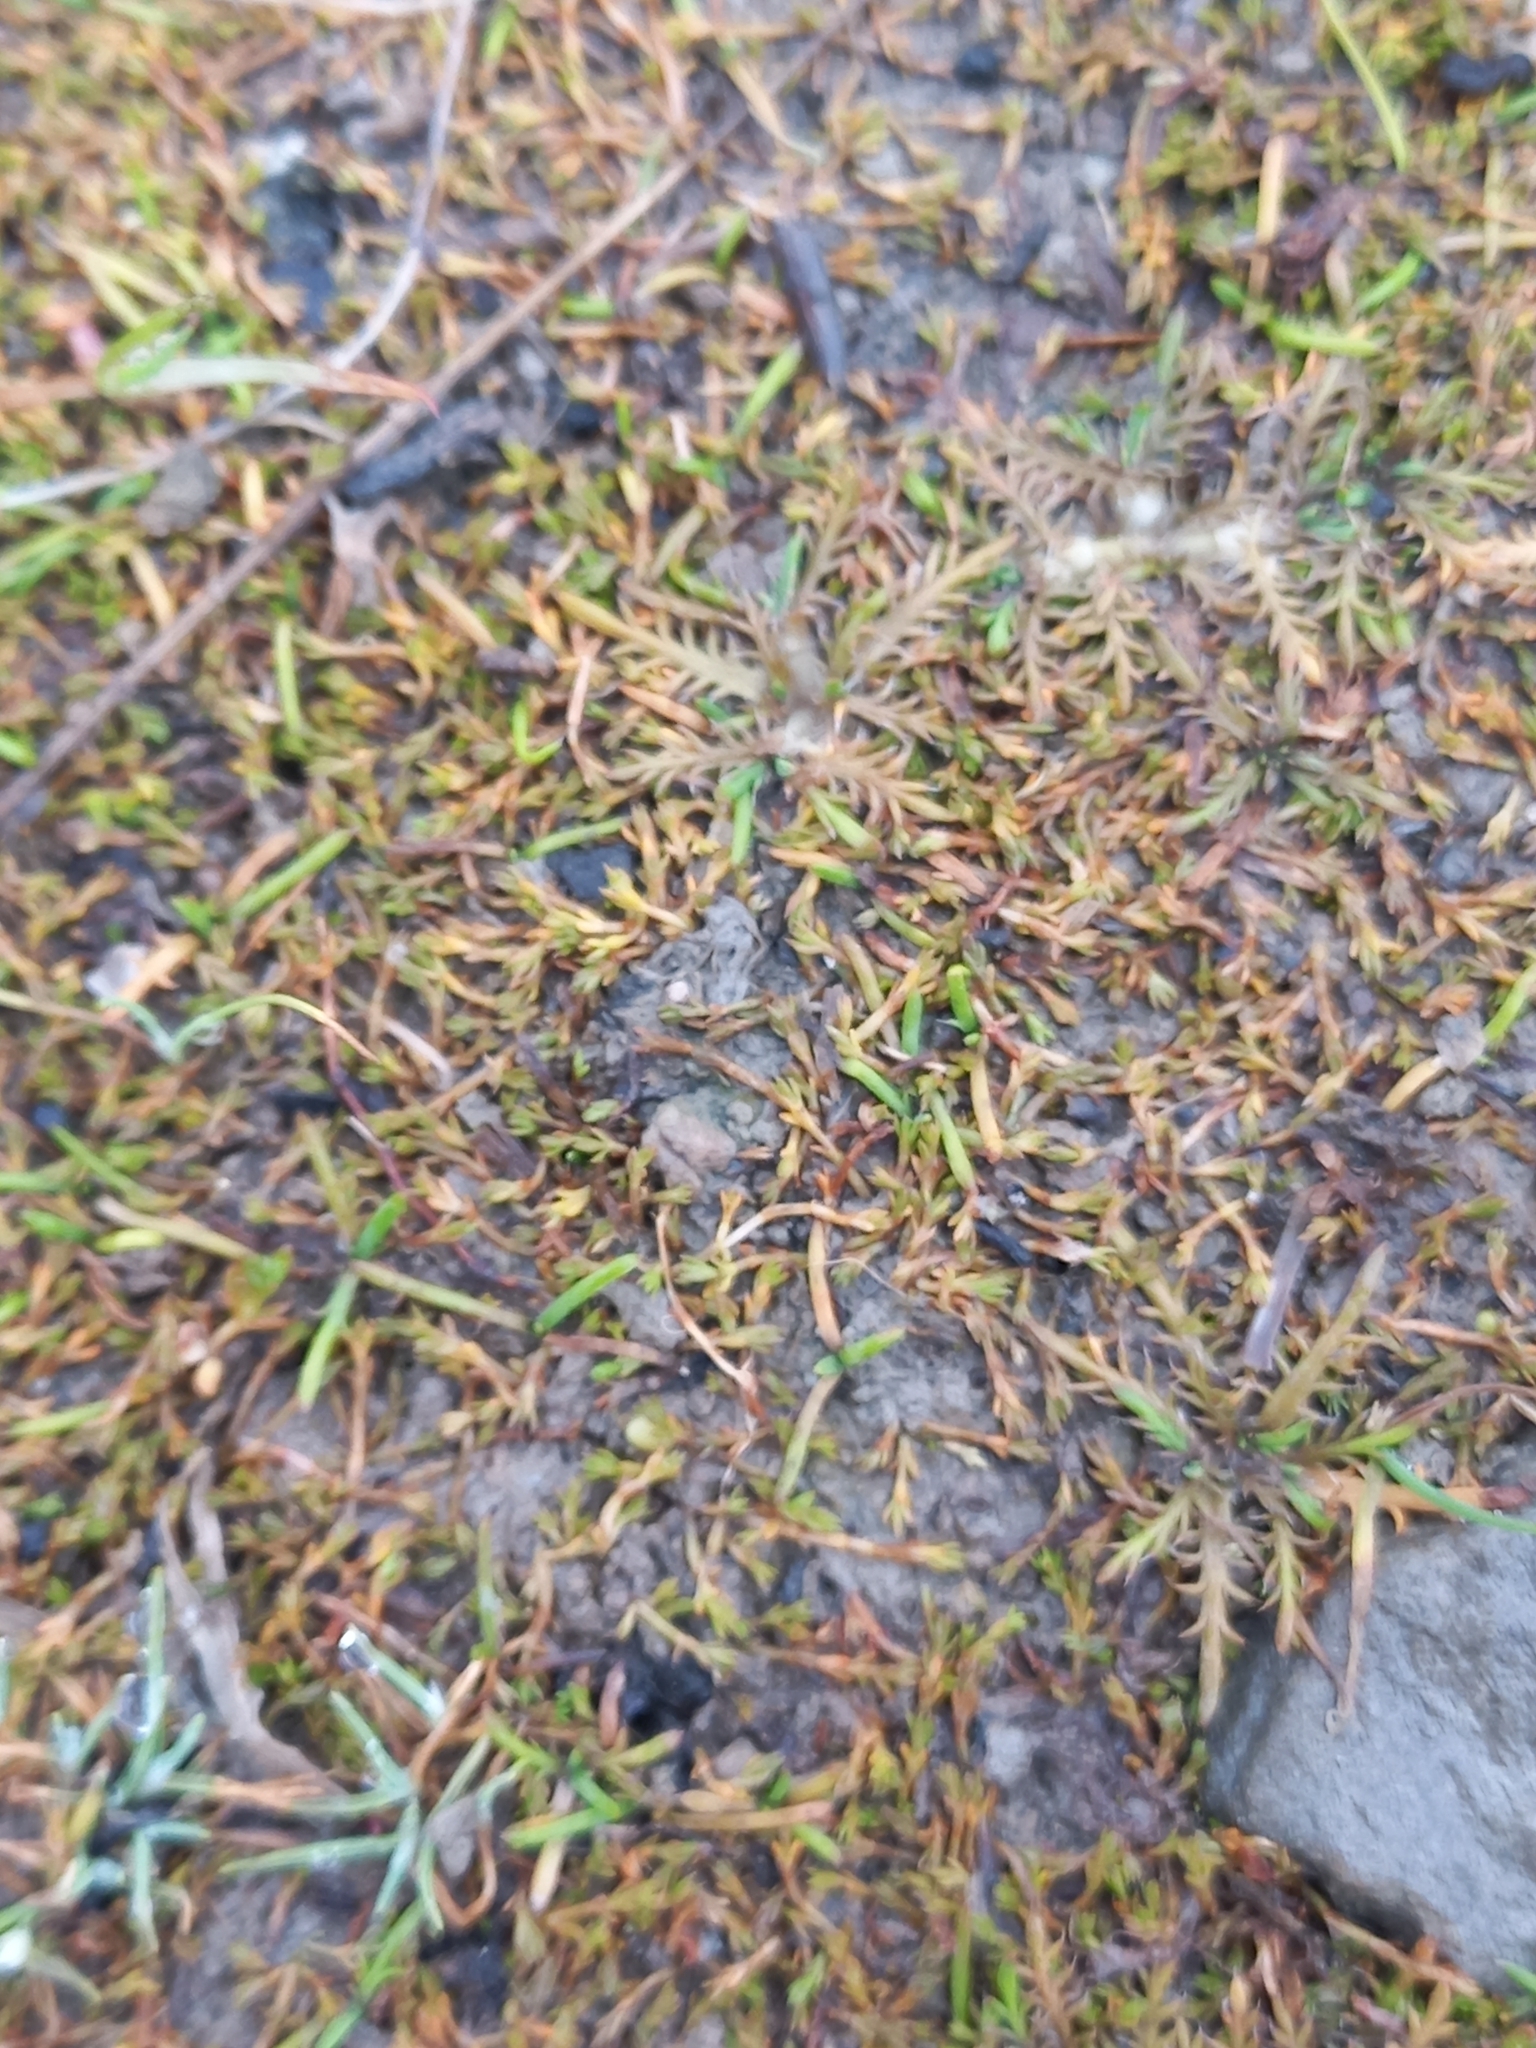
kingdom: Plantae
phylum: Tracheophyta
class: Magnoliopsida
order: Asterales
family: Asteraceae
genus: Leptinella
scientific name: Leptinella maniototo
